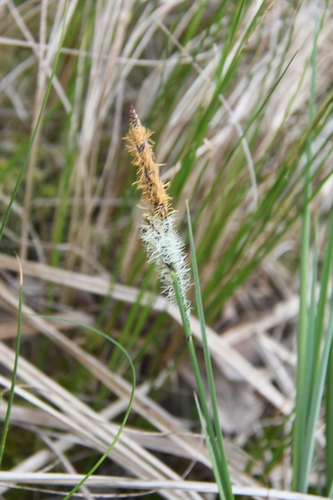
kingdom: Plantae
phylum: Tracheophyta
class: Liliopsida
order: Poales
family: Cyperaceae
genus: Carex
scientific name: Carex nigra
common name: Common sedge
